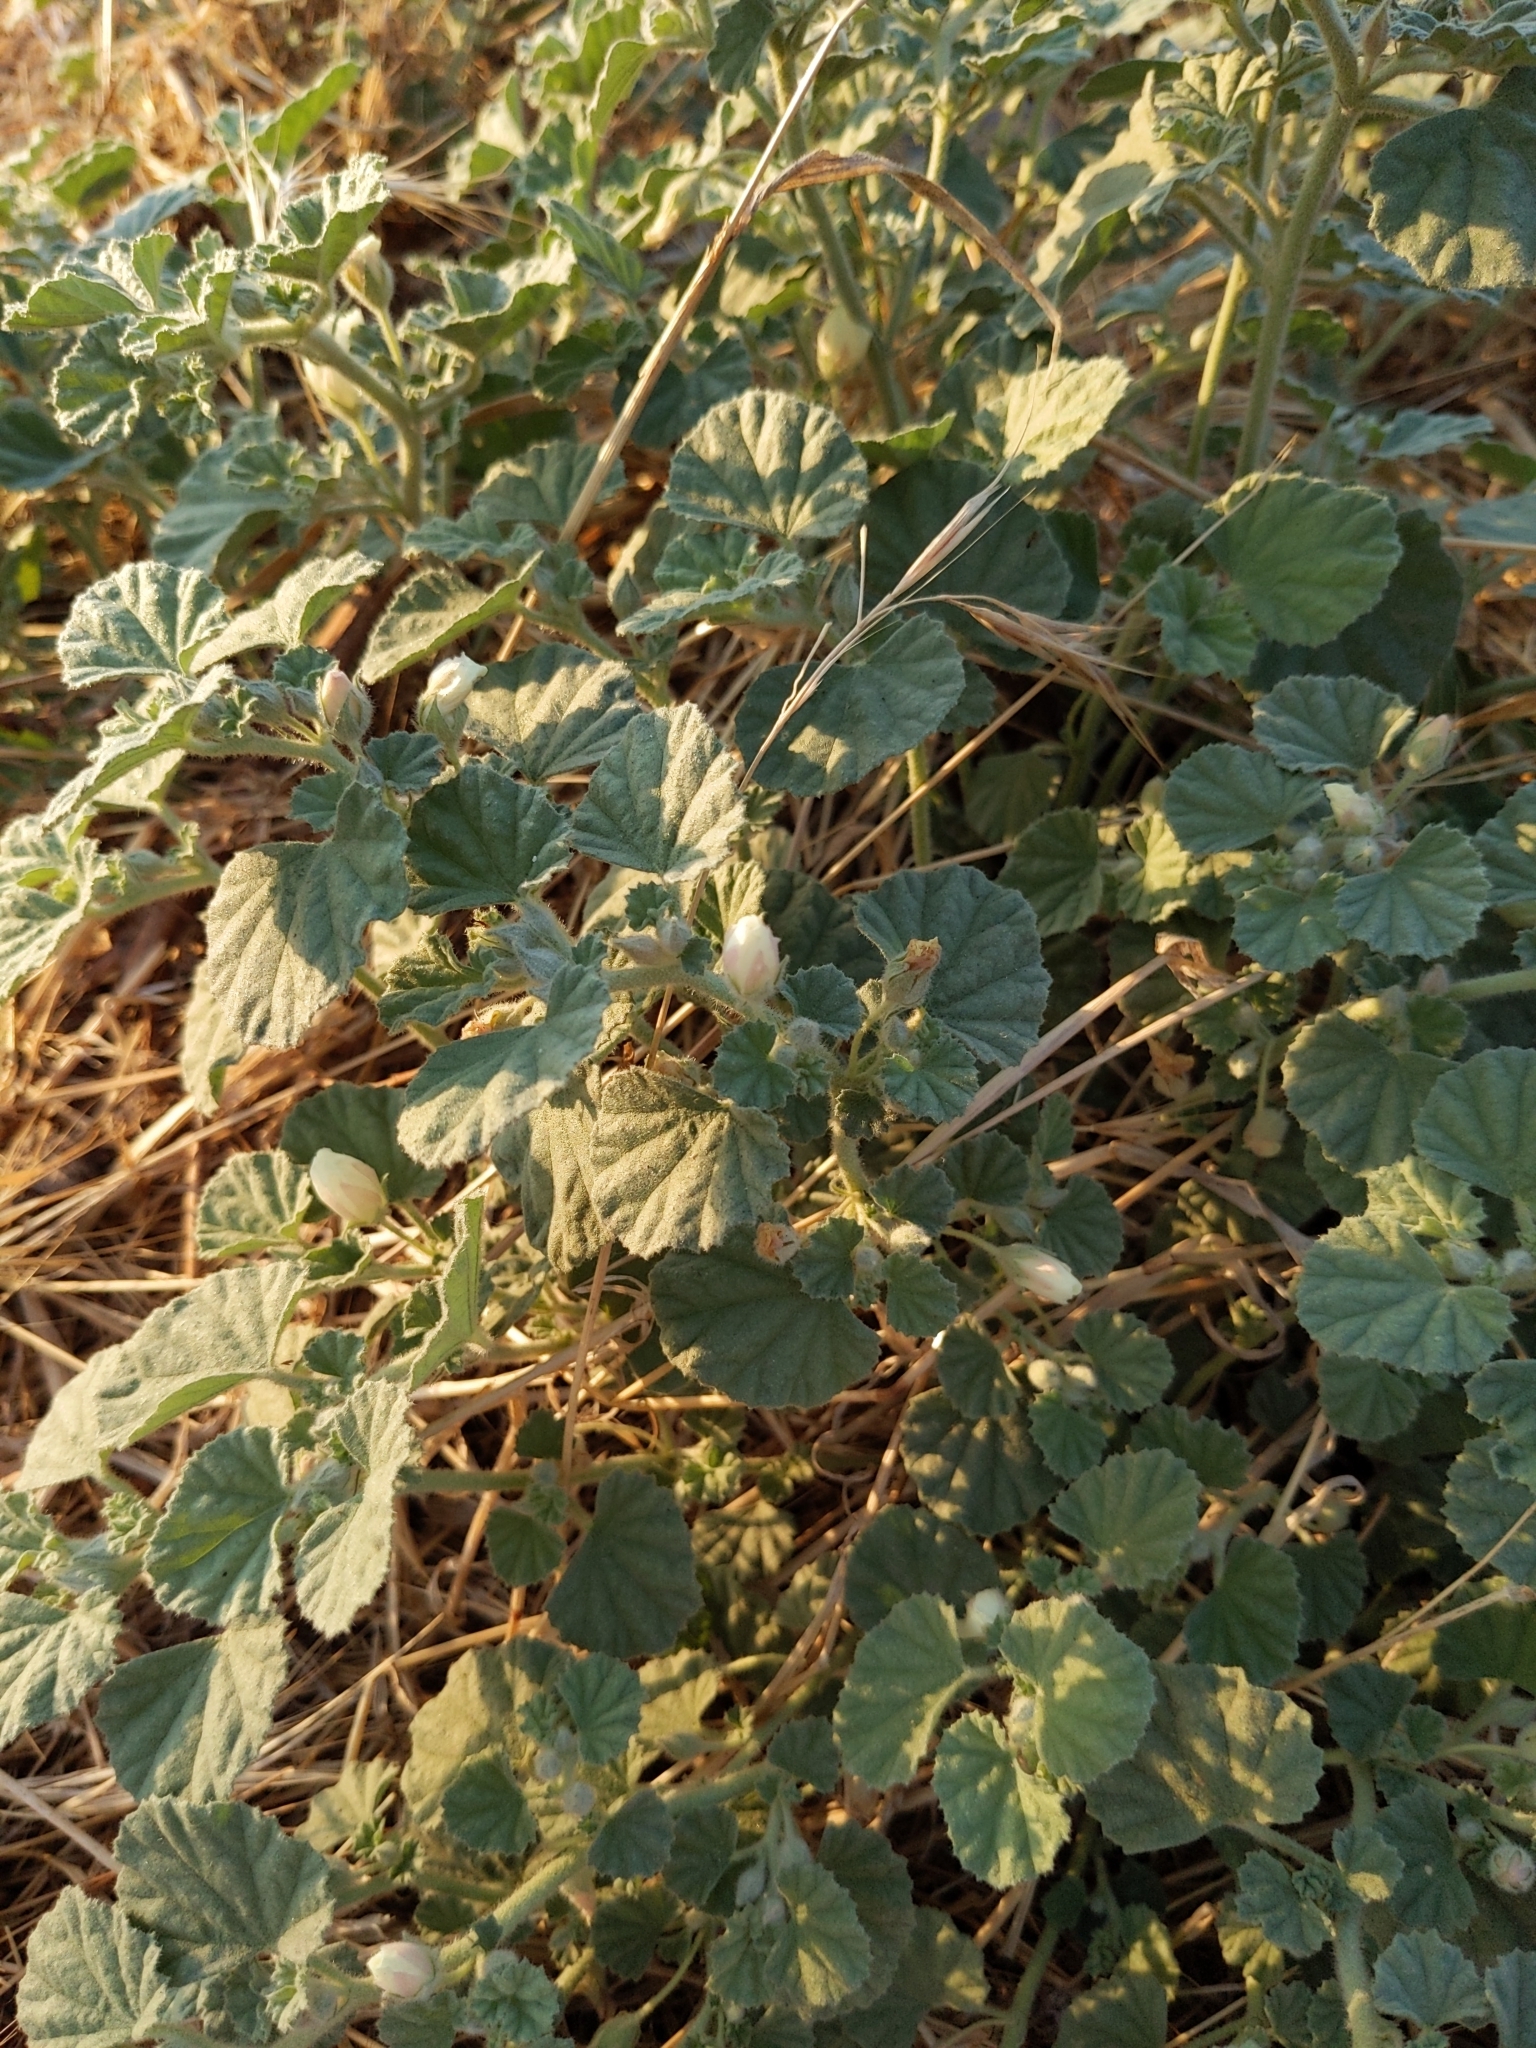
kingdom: Plantae
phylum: Tracheophyta
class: Magnoliopsida
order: Malvales
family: Malvaceae
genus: Malvella
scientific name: Malvella leprosa
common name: Alkali-mallow
